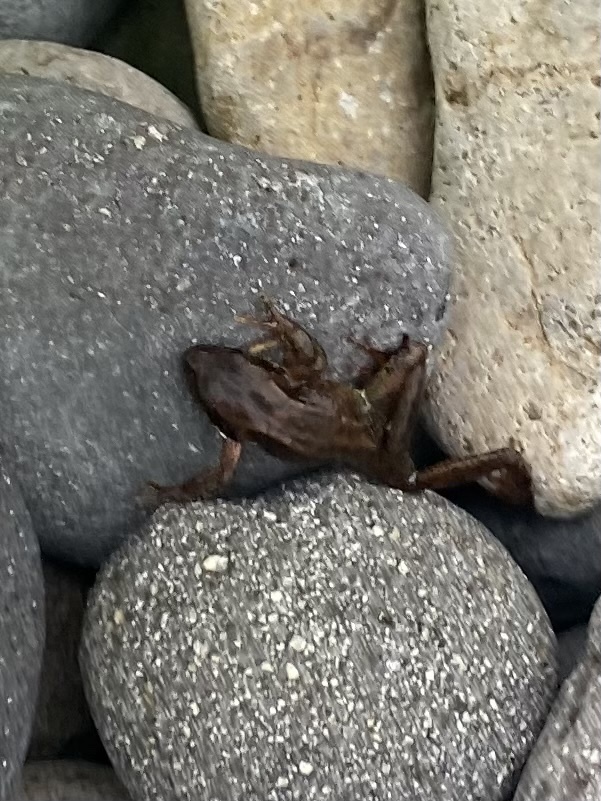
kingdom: Animalia
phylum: Chordata
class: Amphibia
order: Anura
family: Ranidae
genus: Rana
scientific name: Rana pirica
